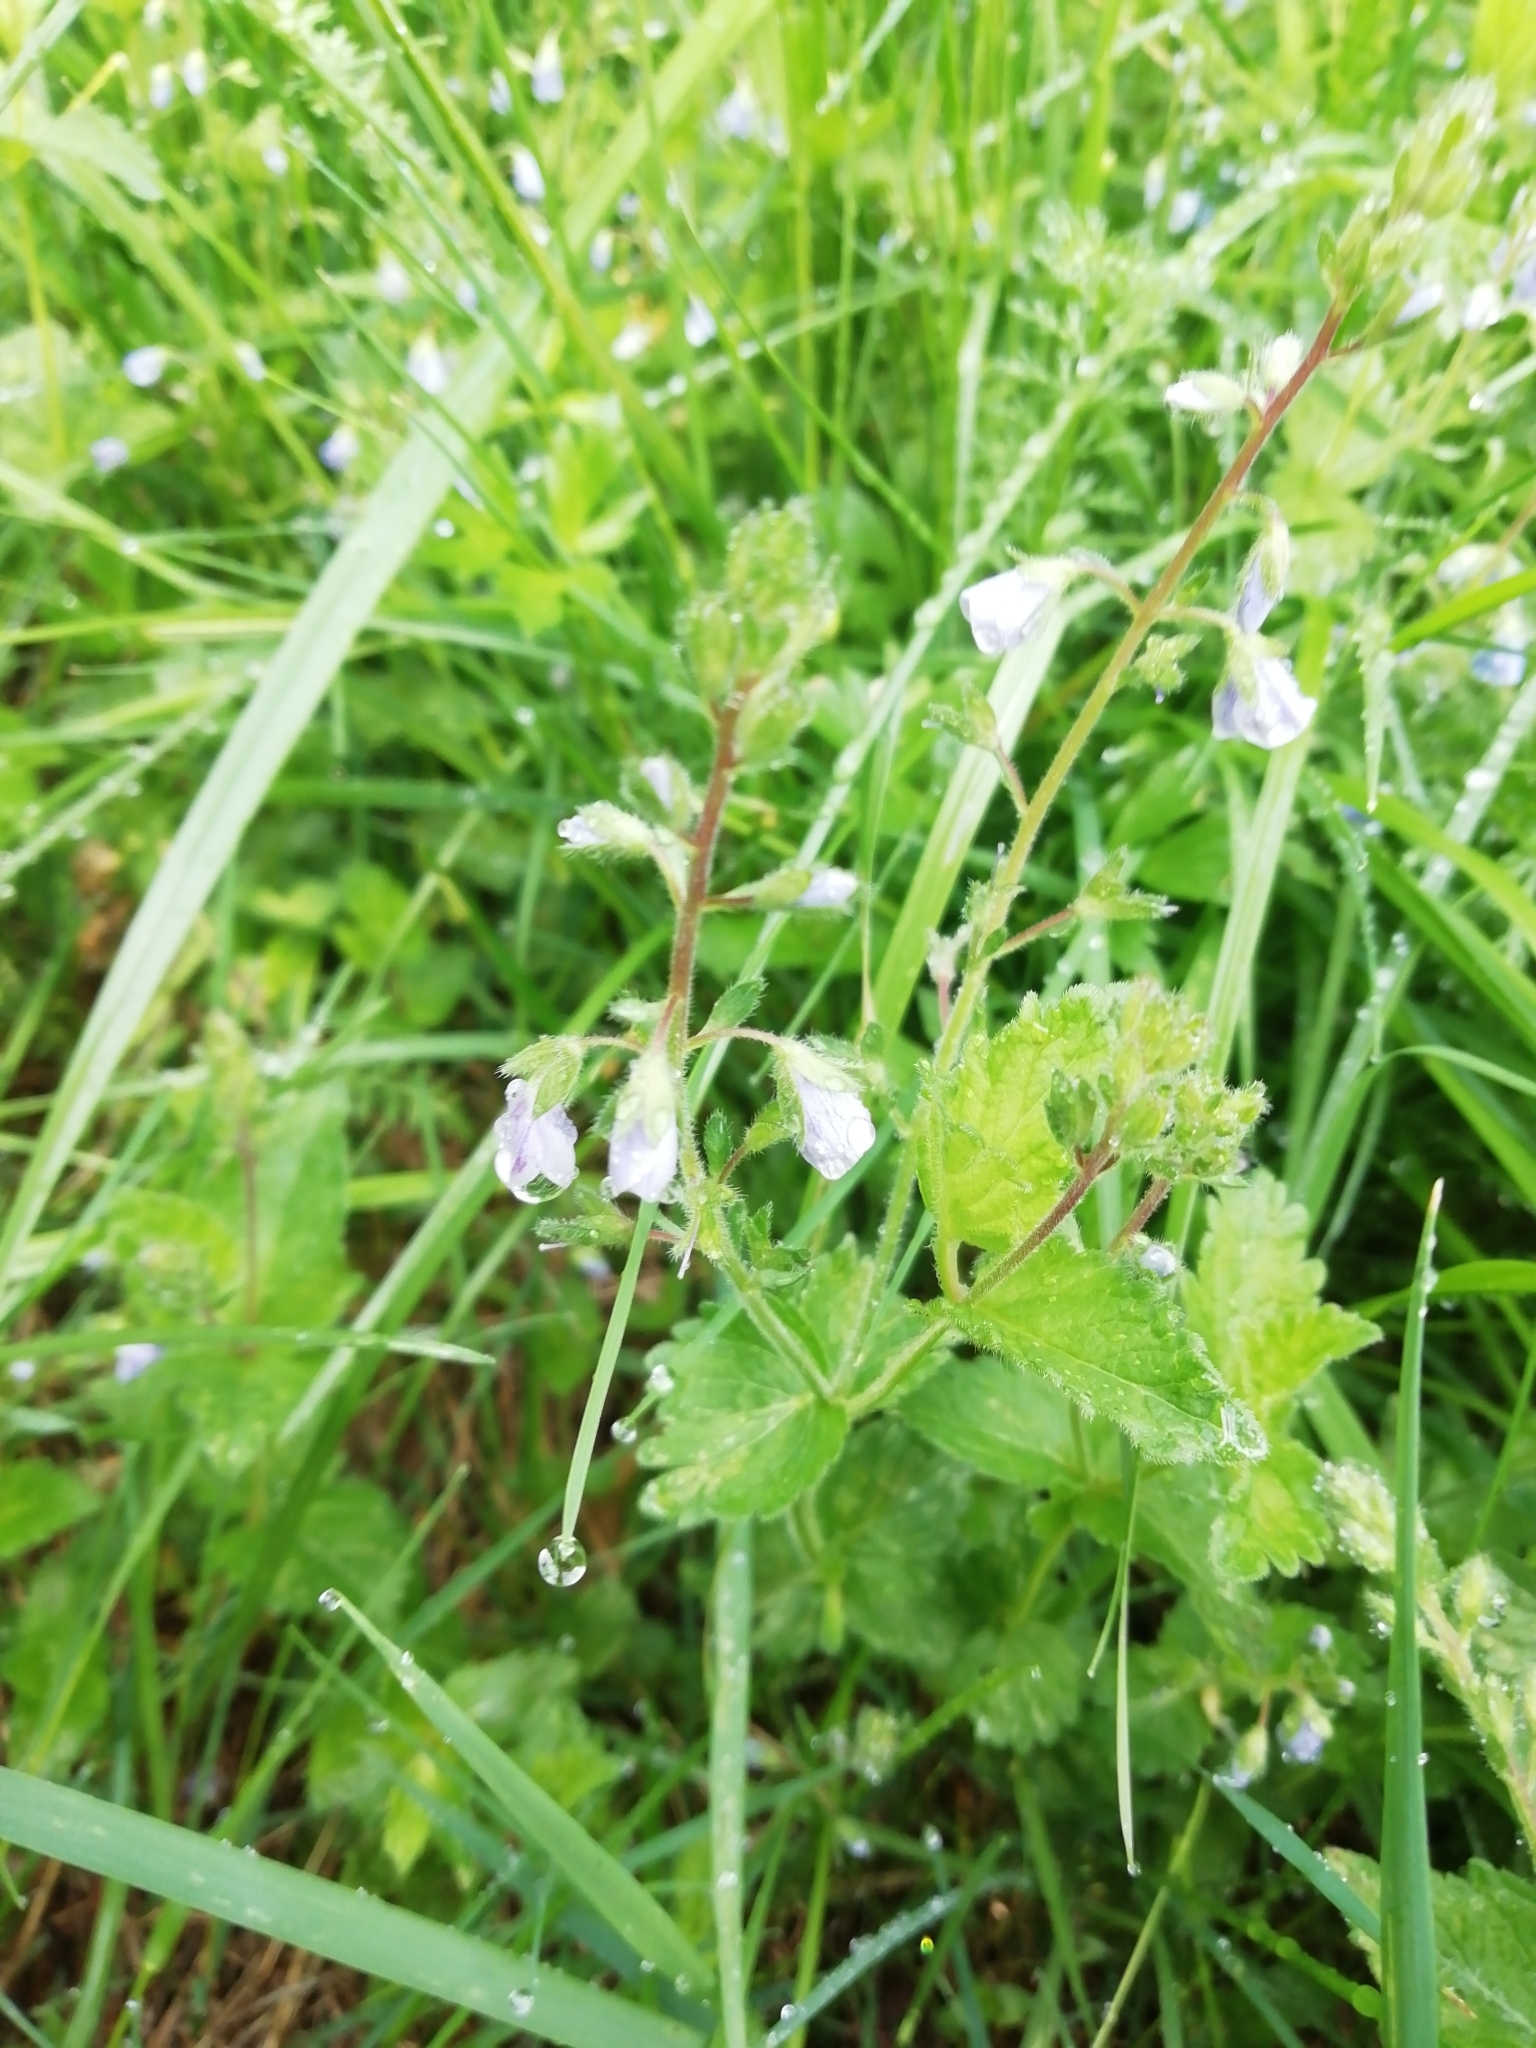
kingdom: Plantae
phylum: Tracheophyta
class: Magnoliopsida
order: Lamiales
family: Plantaginaceae
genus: Veronica
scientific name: Veronica chamaedrys
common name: Germander speedwell
